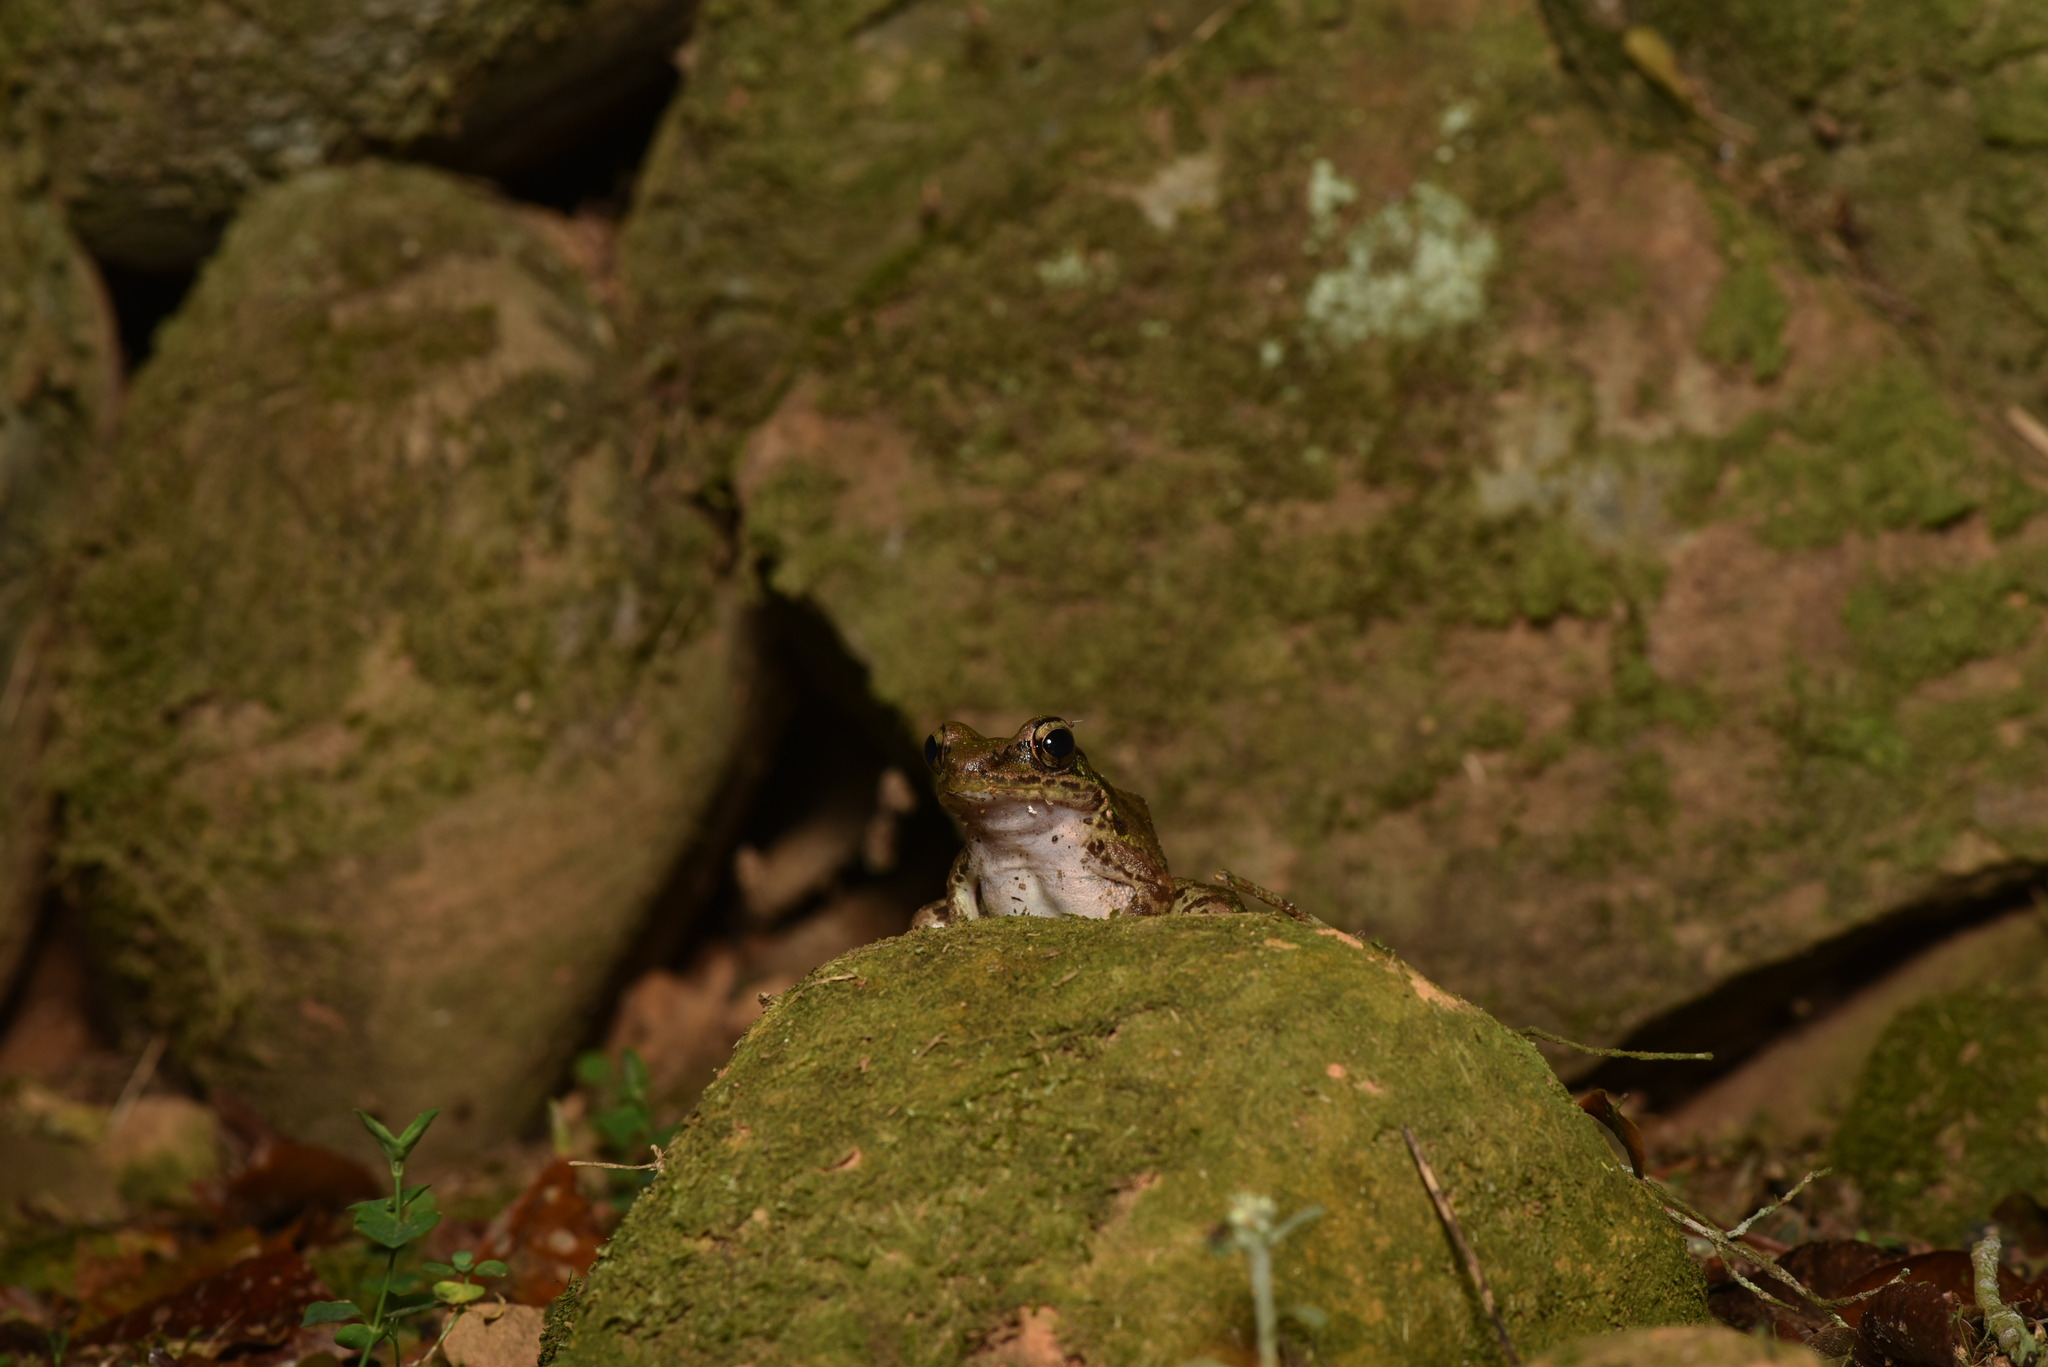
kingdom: Animalia
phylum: Chordata
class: Amphibia
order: Anura
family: Ranidae
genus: Odorrana
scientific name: Odorrana swinhoana
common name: Bangkimtsing frog
